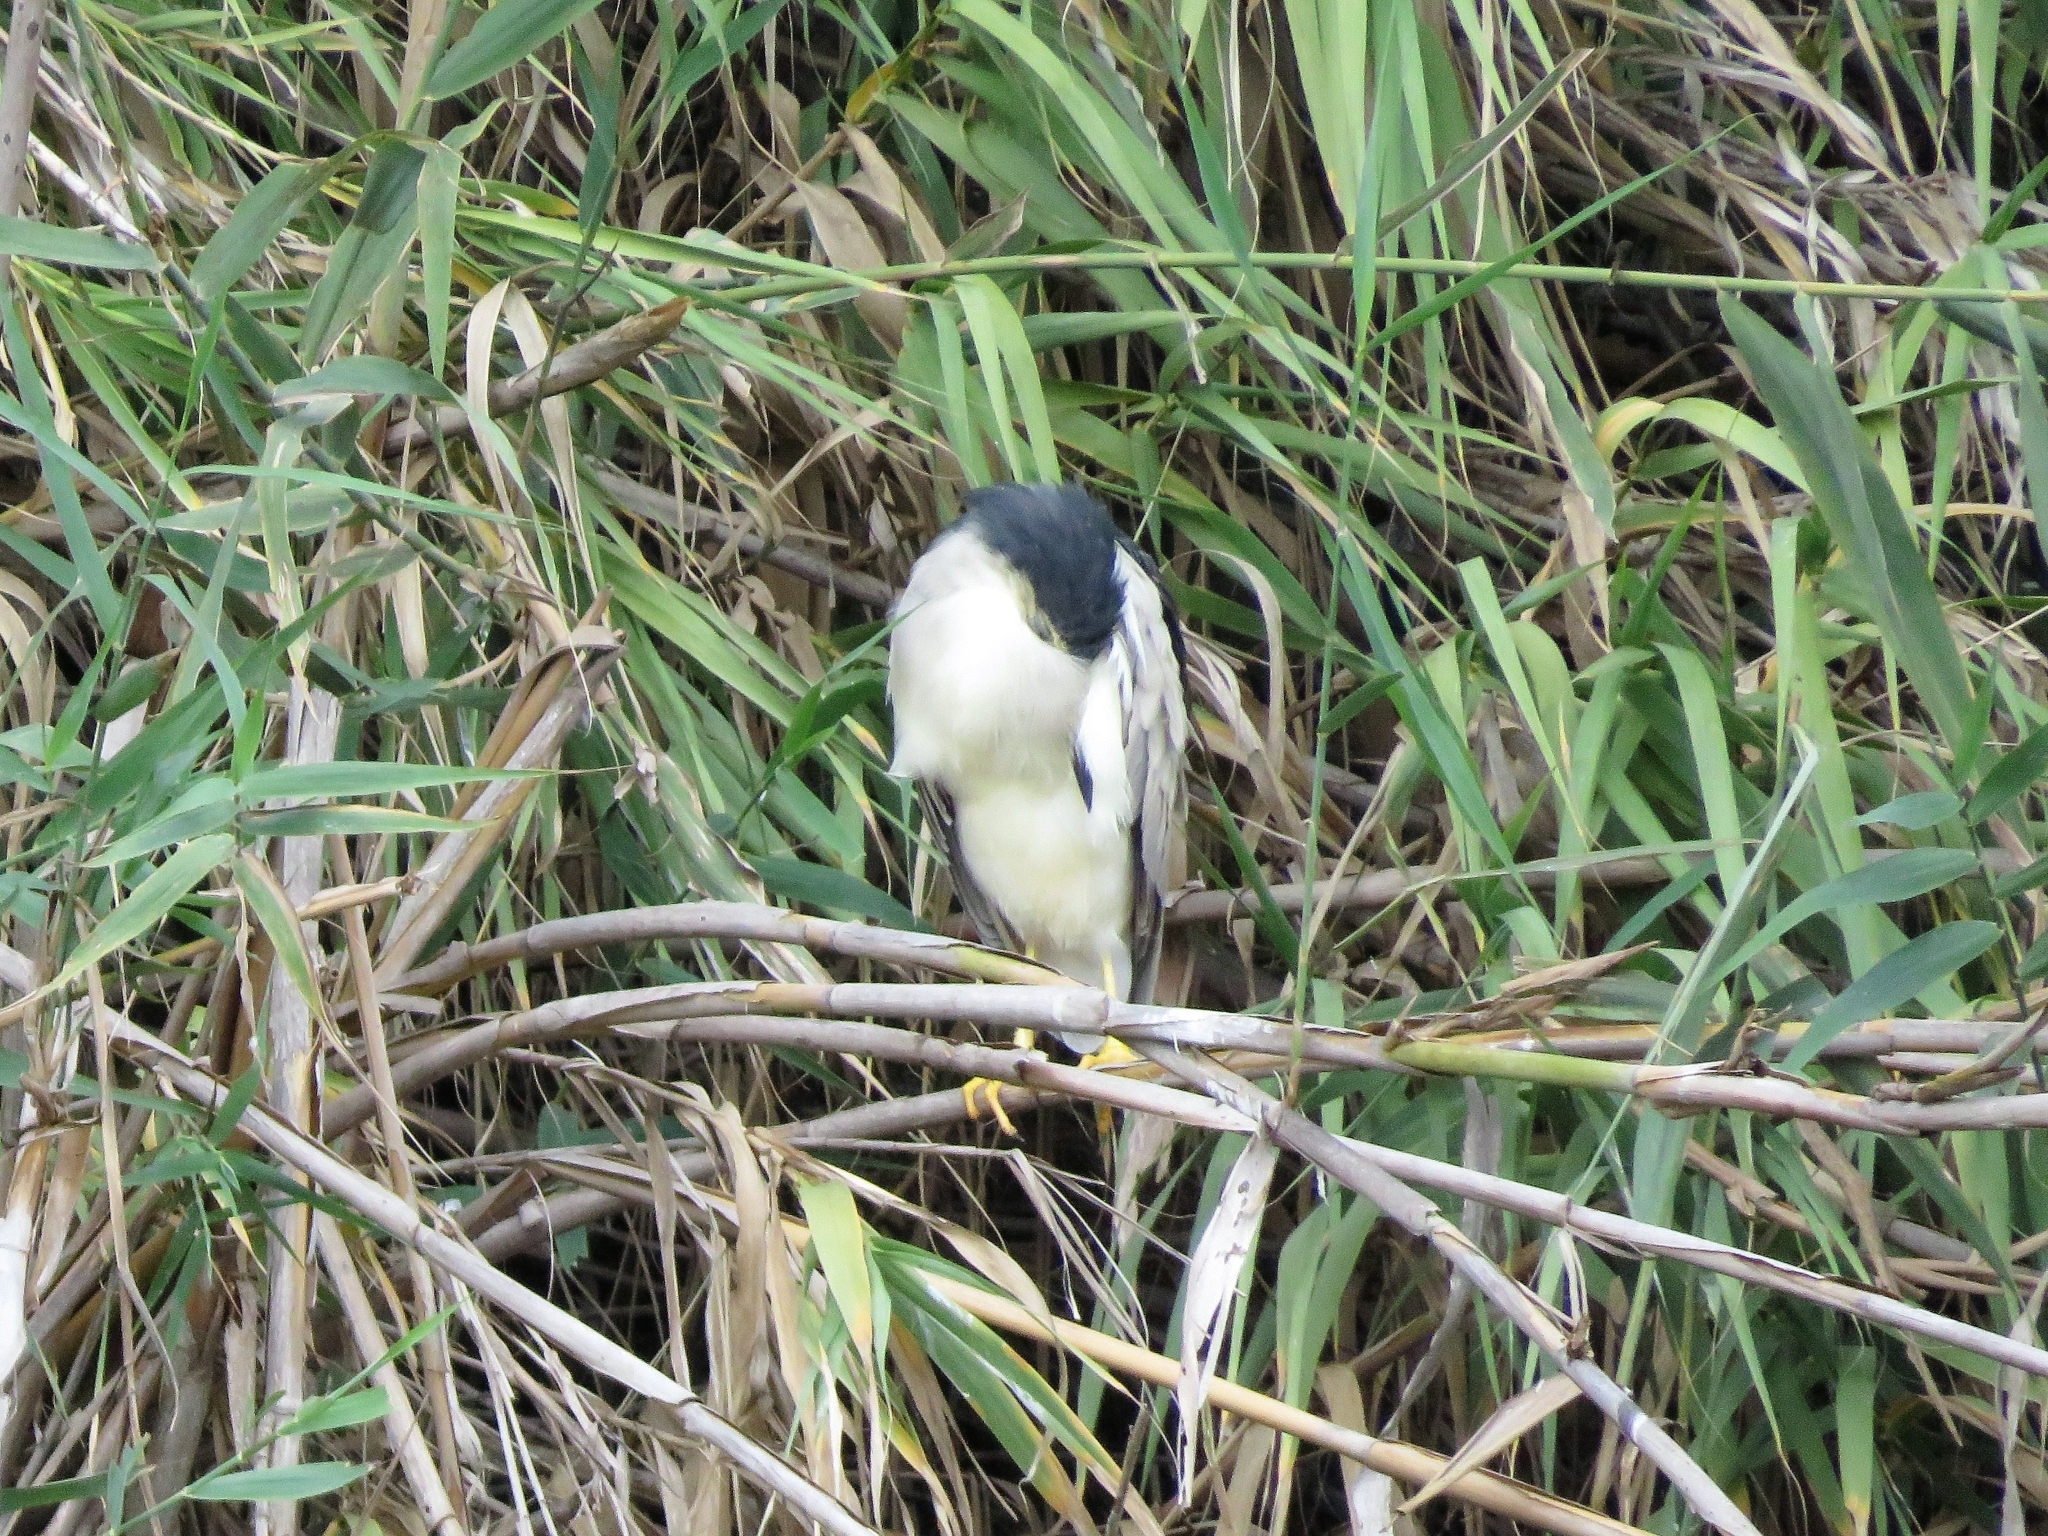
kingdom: Animalia
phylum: Chordata
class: Aves
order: Pelecaniformes
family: Ardeidae
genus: Nycticorax
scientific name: Nycticorax nycticorax
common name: Black-crowned night heron
